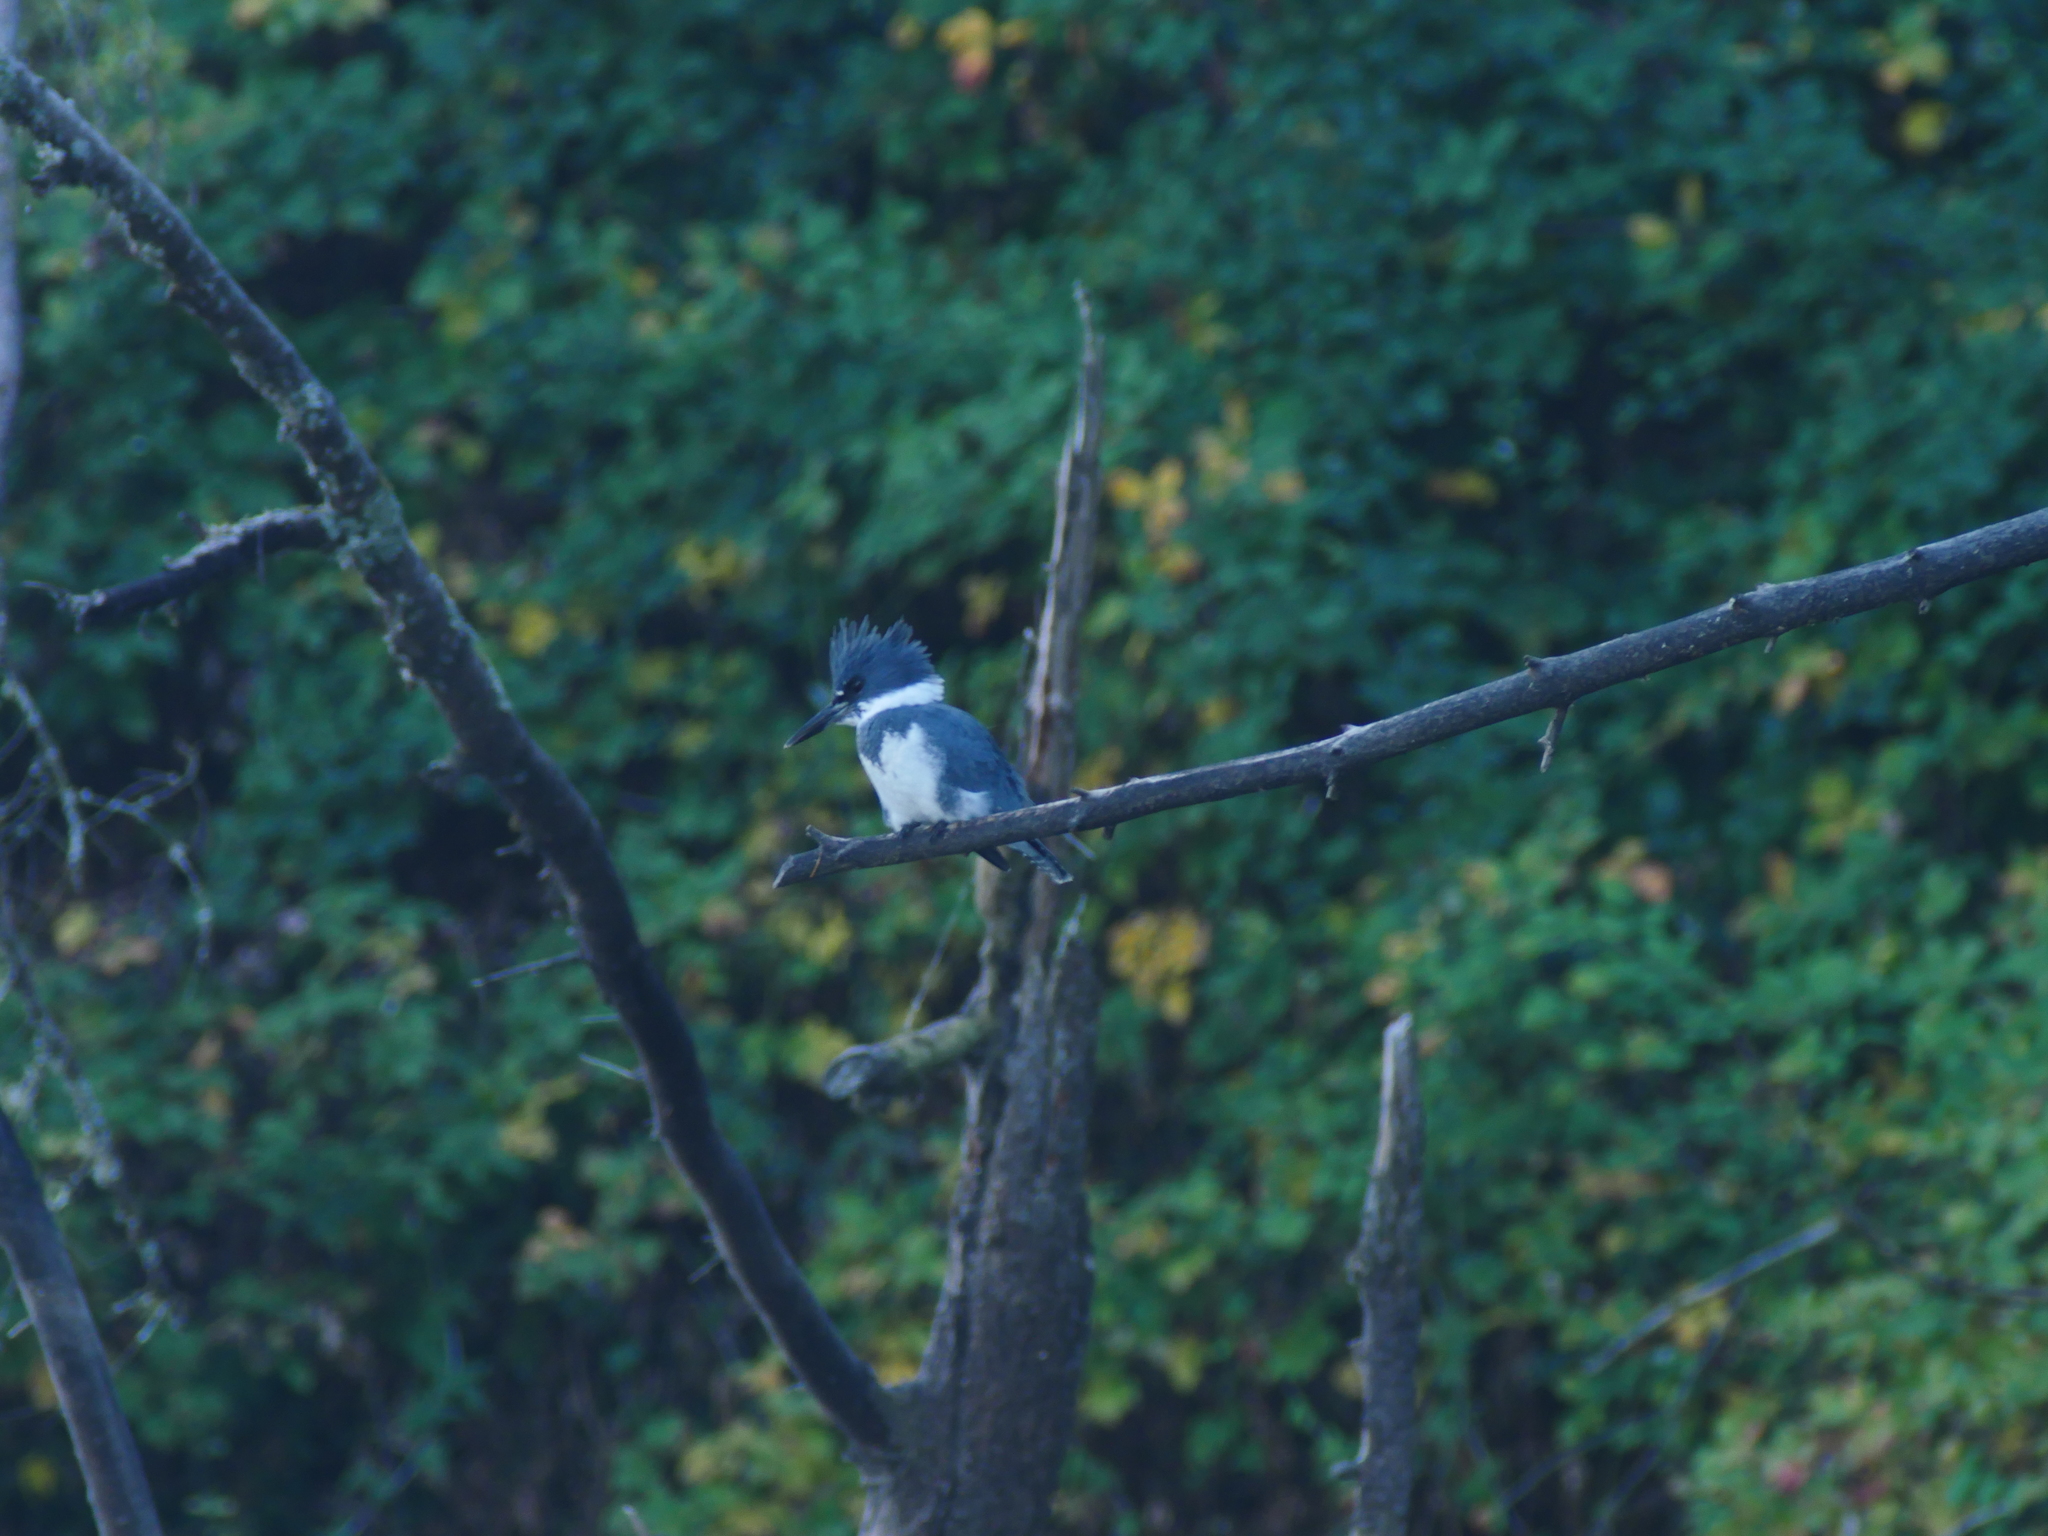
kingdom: Animalia
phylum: Chordata
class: Aves
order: Coraciiformes
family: Alcedinidae
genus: Megaceryle
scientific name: Megaceryle alcyon
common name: Belted kingfisher
